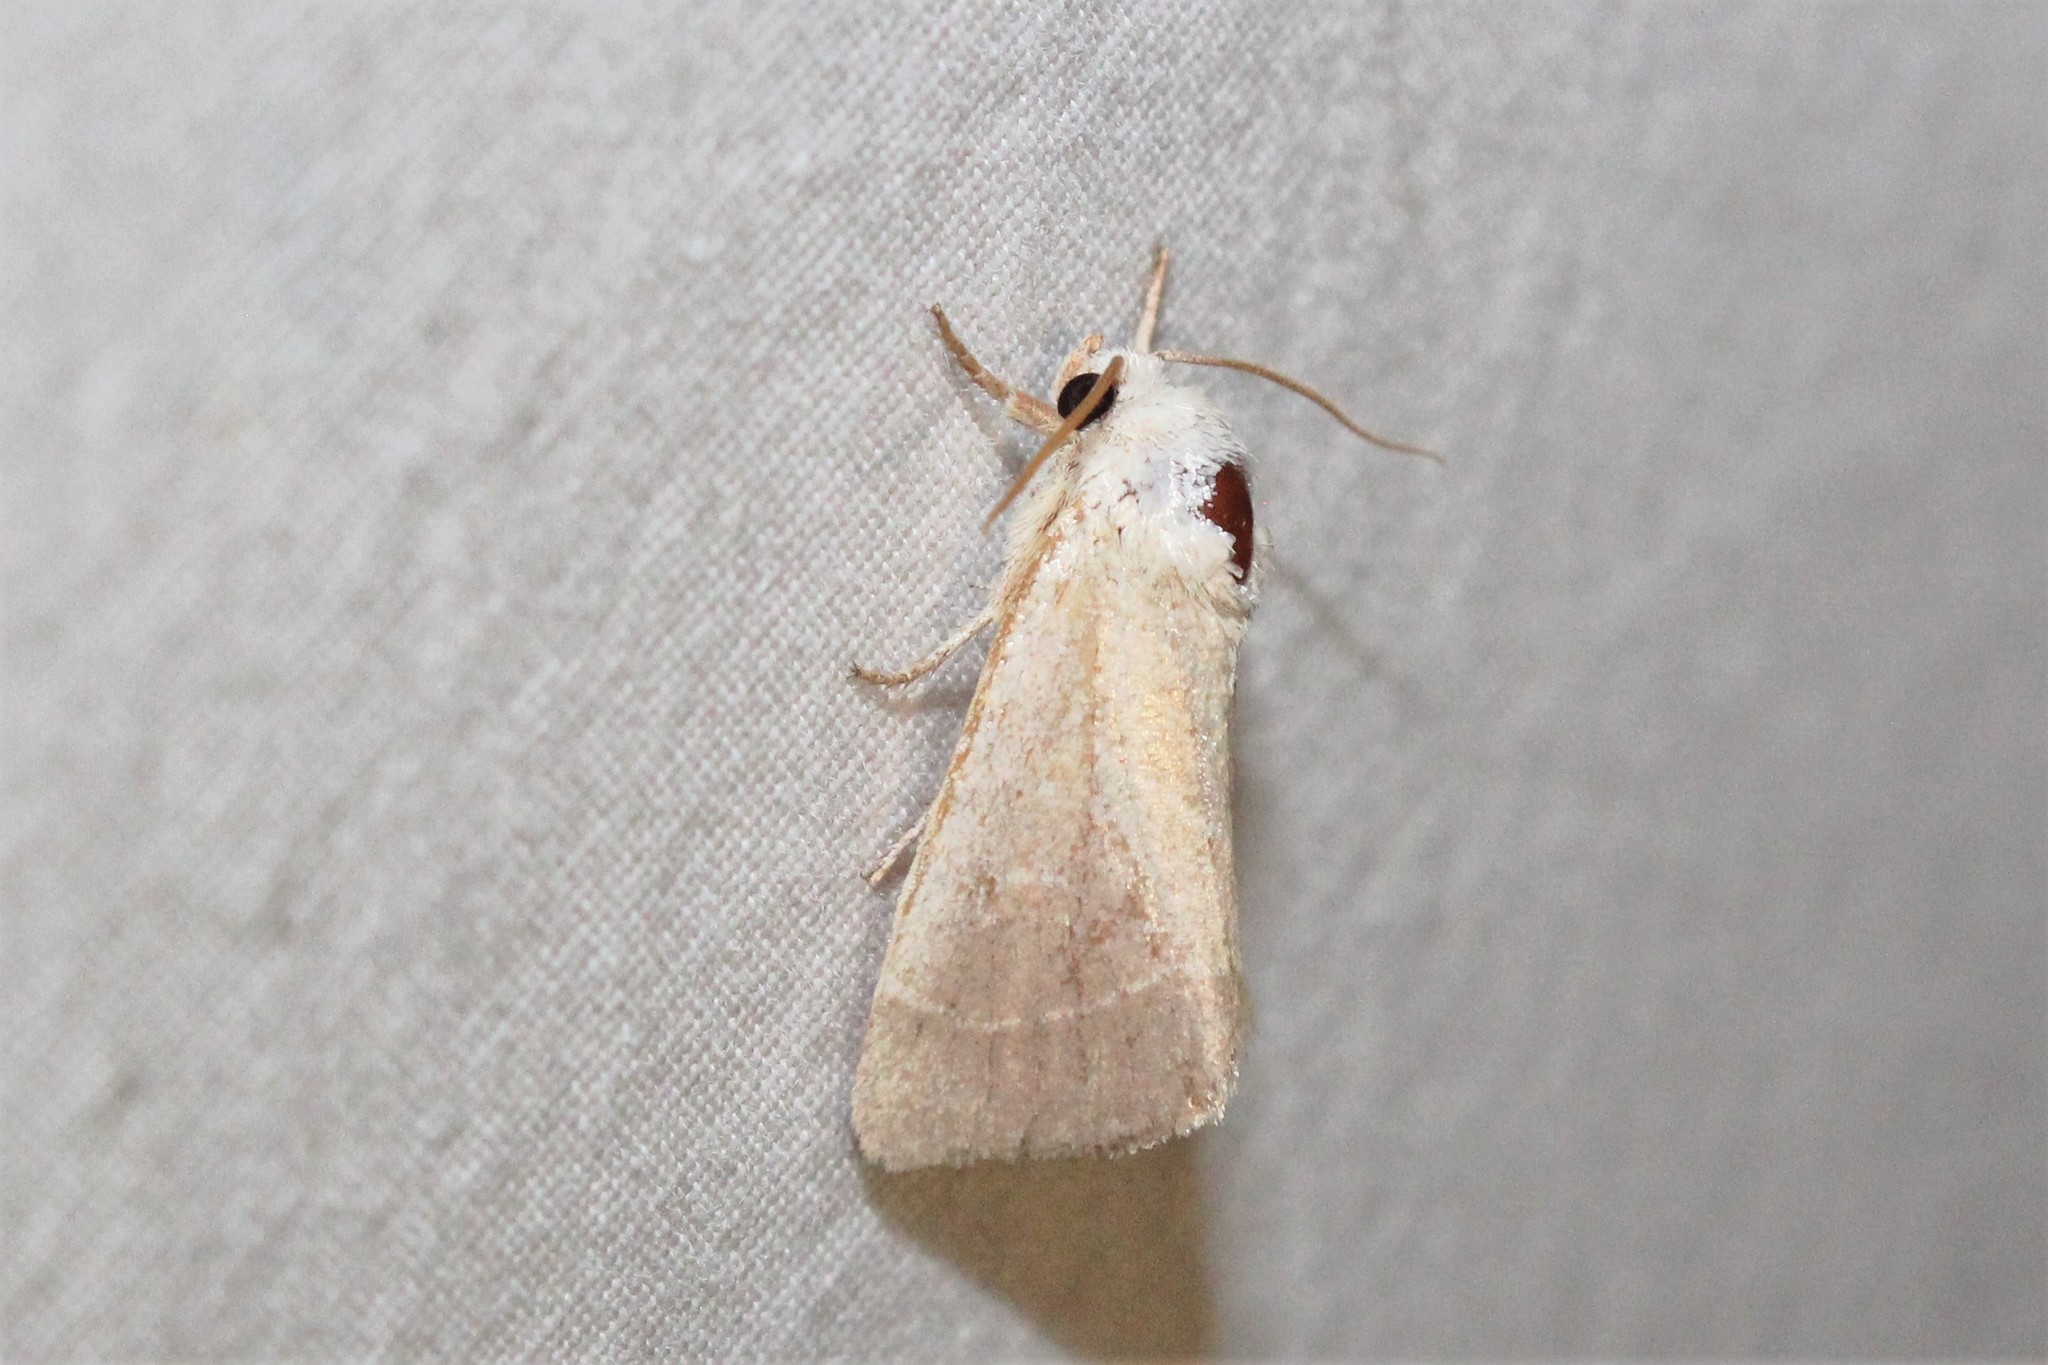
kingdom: Animalia
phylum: Arthropoda
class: Insecta
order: Lepidoptera
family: Noctuidae
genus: Cosmia
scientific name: Cosmia calami
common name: American dun-bar moth
